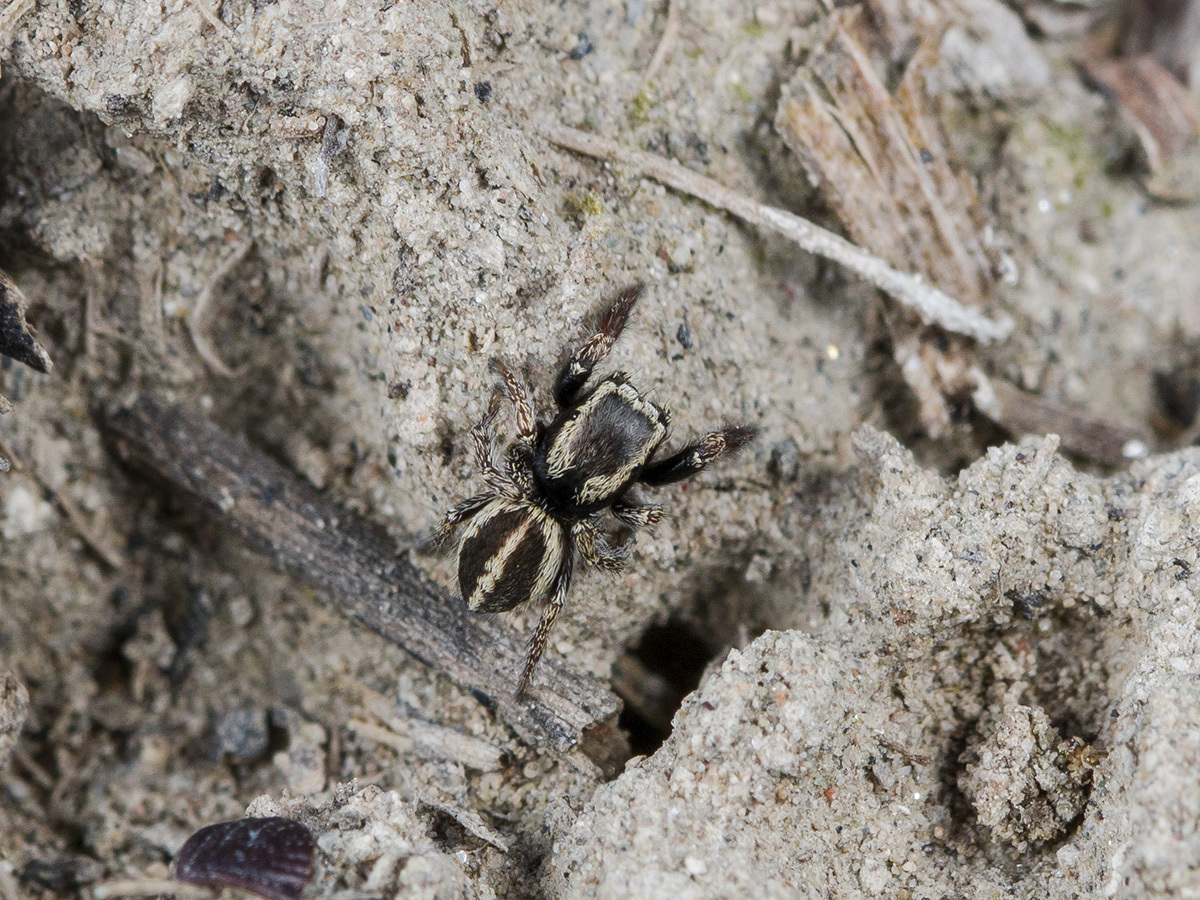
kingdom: Animalia
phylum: Arthropoda
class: Arachnida
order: Araneae
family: Salticidae
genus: Pellenes
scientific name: Pellenes epularis
